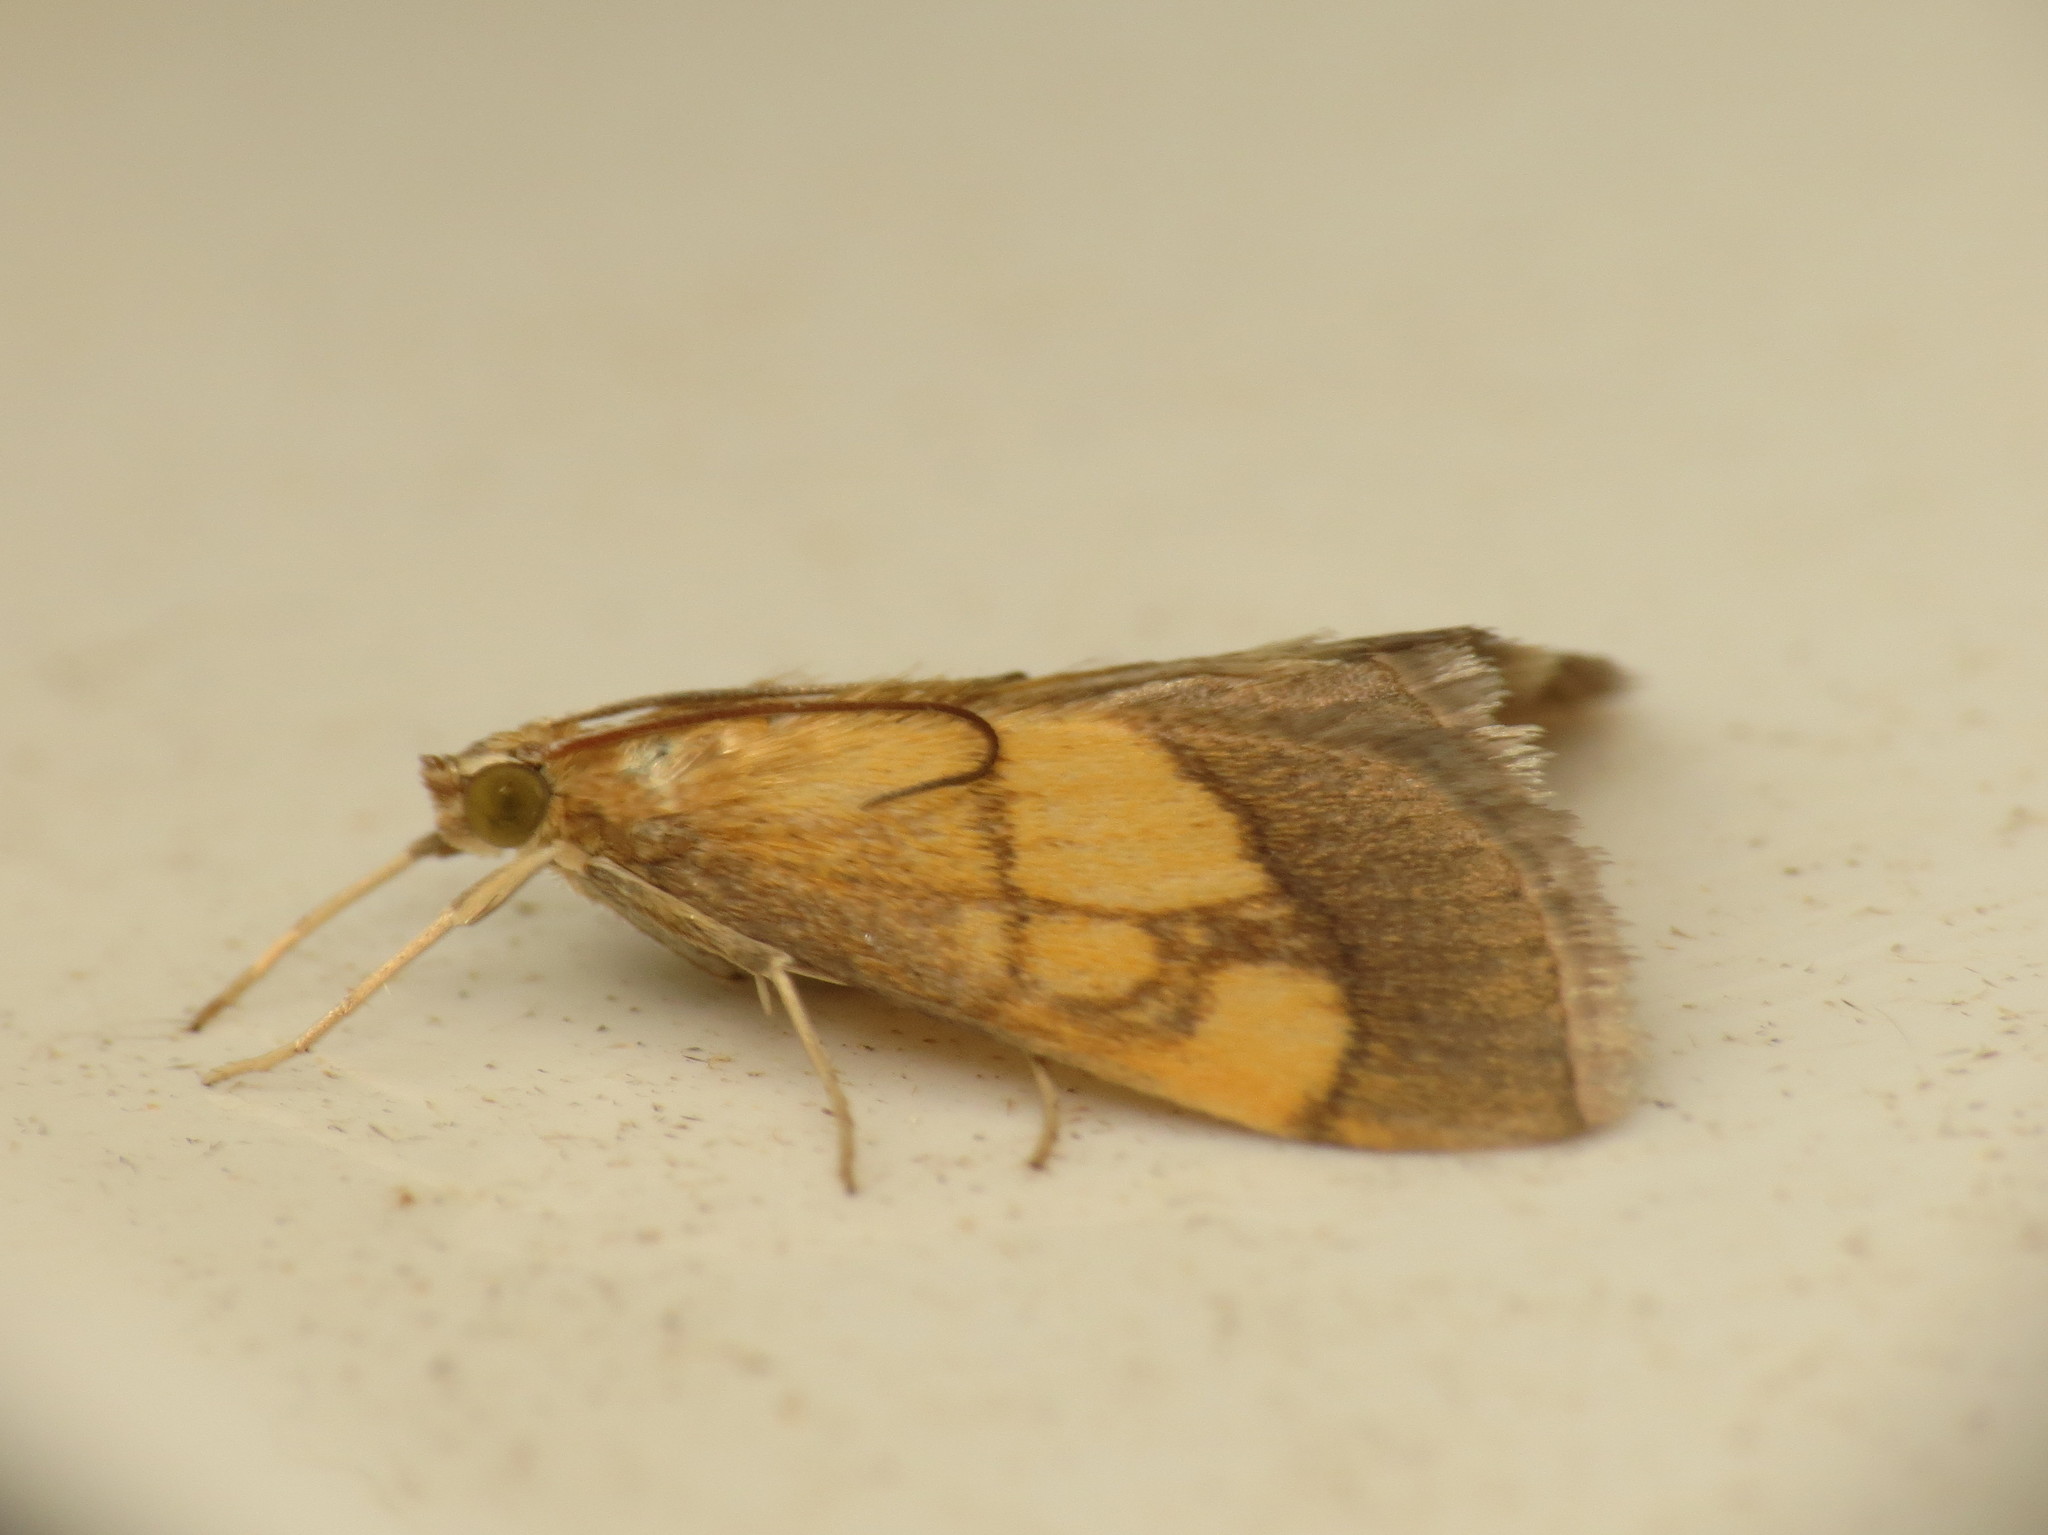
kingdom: Animalia
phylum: Arthropoda
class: Insecta
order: Lepidoptera
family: Crambidae
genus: Evergestis
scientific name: Evergestis limbata
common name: Dark bordered pearl
